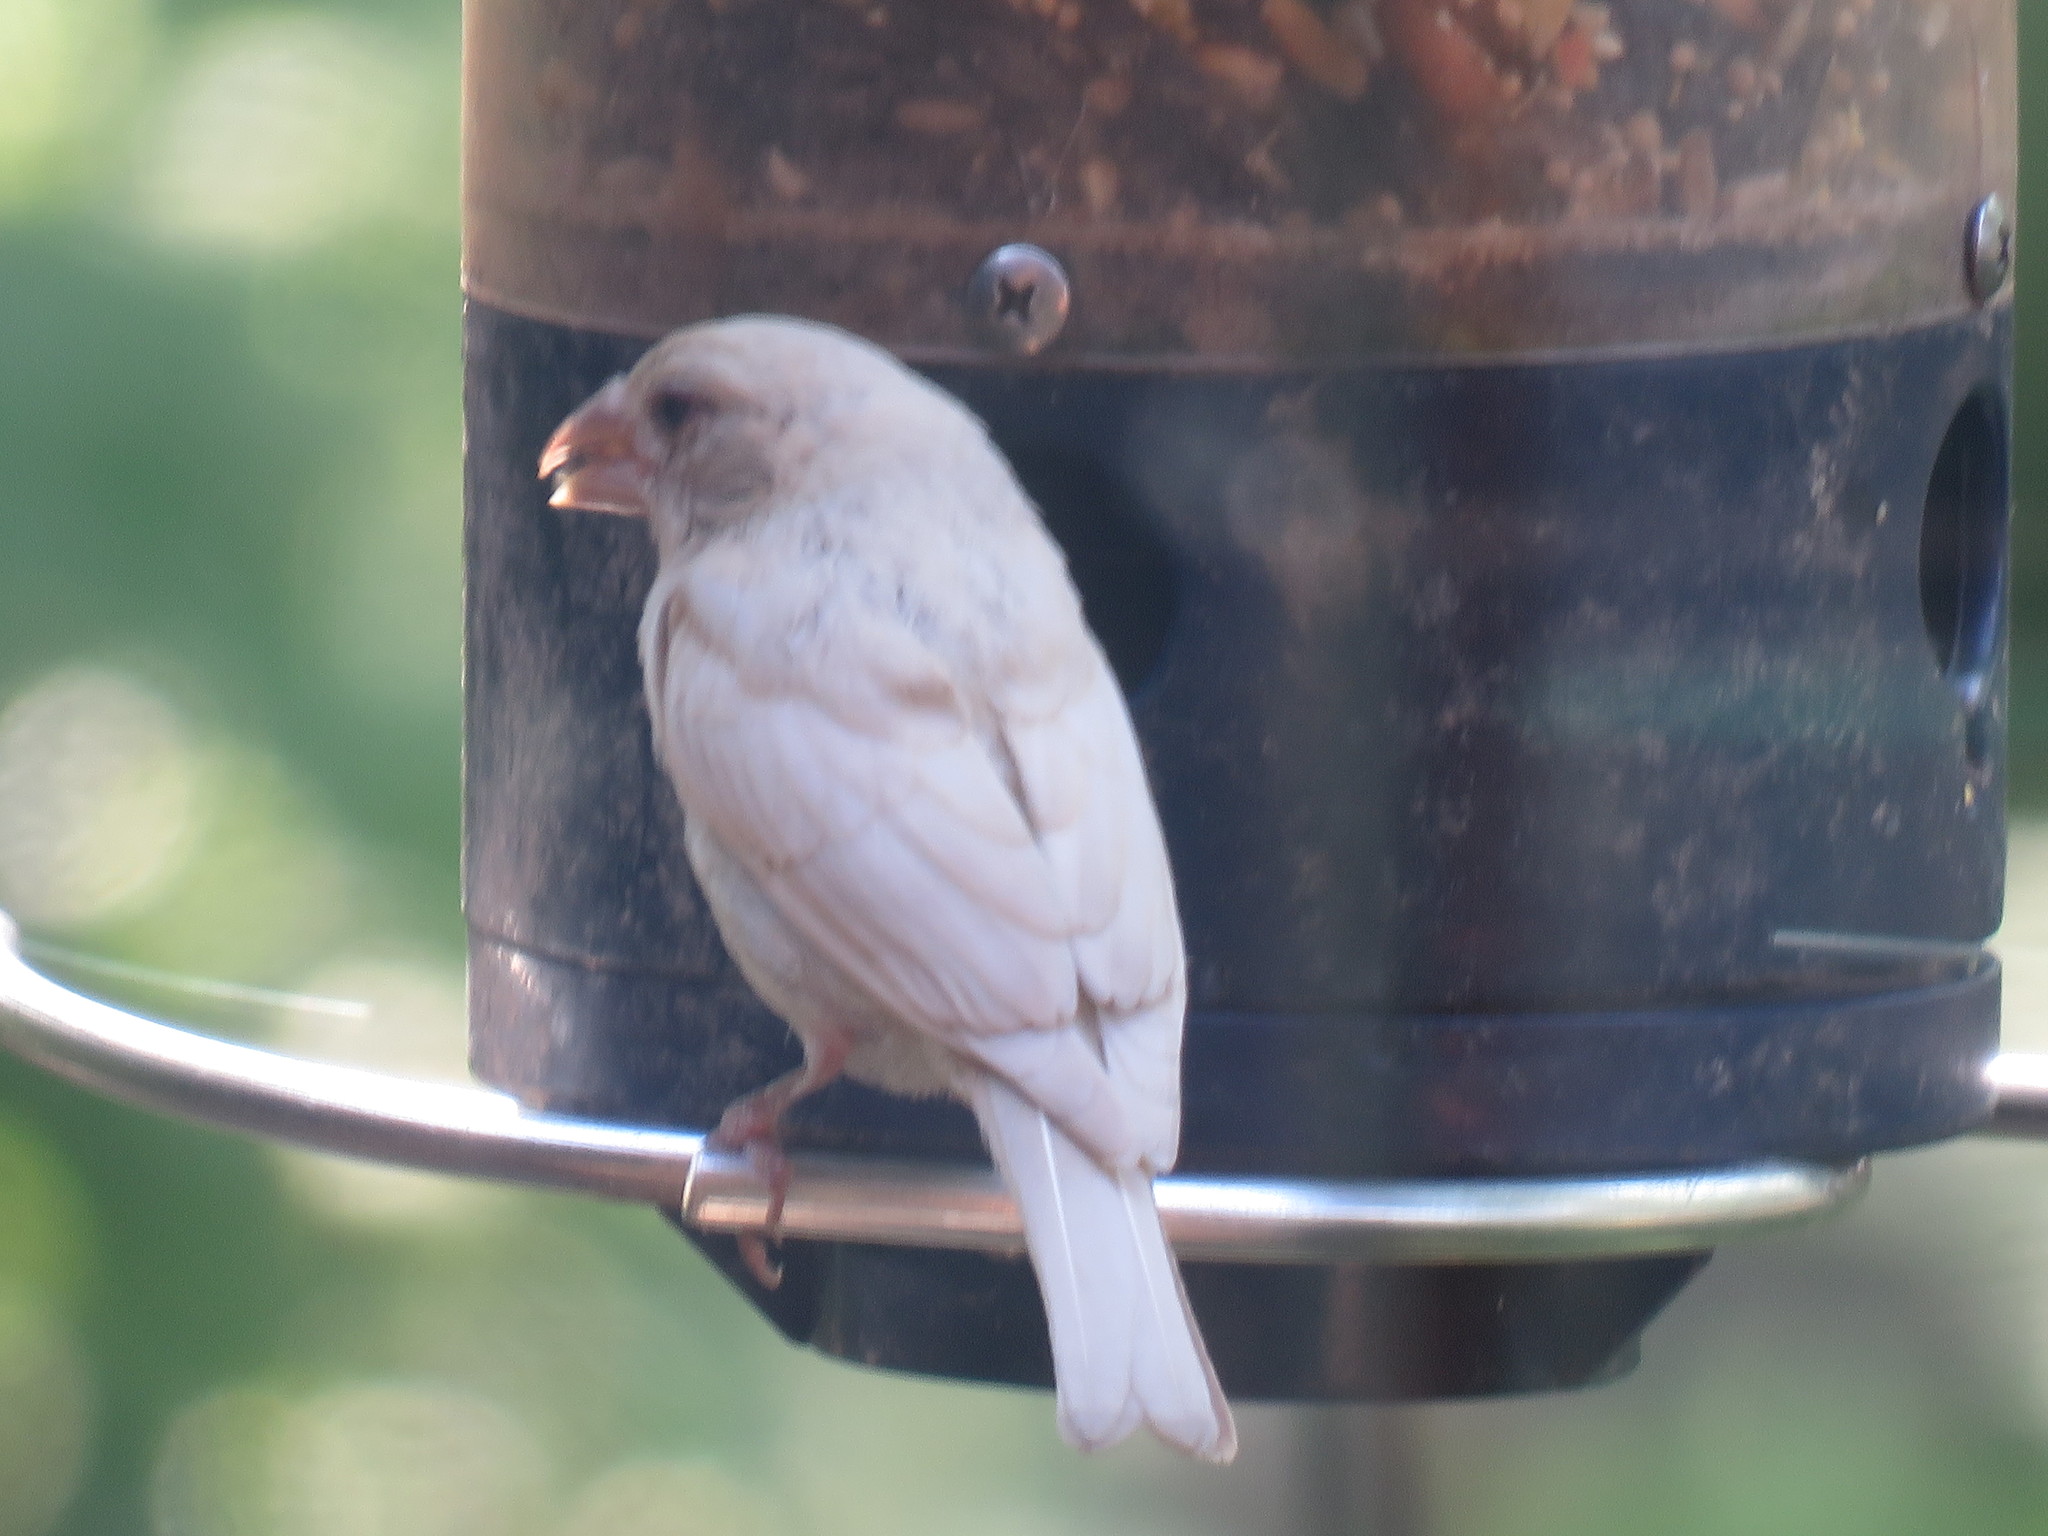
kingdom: Animalia
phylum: Chordata
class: Aves
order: Passeriformes
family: Fringillidae
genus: Haemorhous
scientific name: Haemorhous mexicanus
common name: House finch
